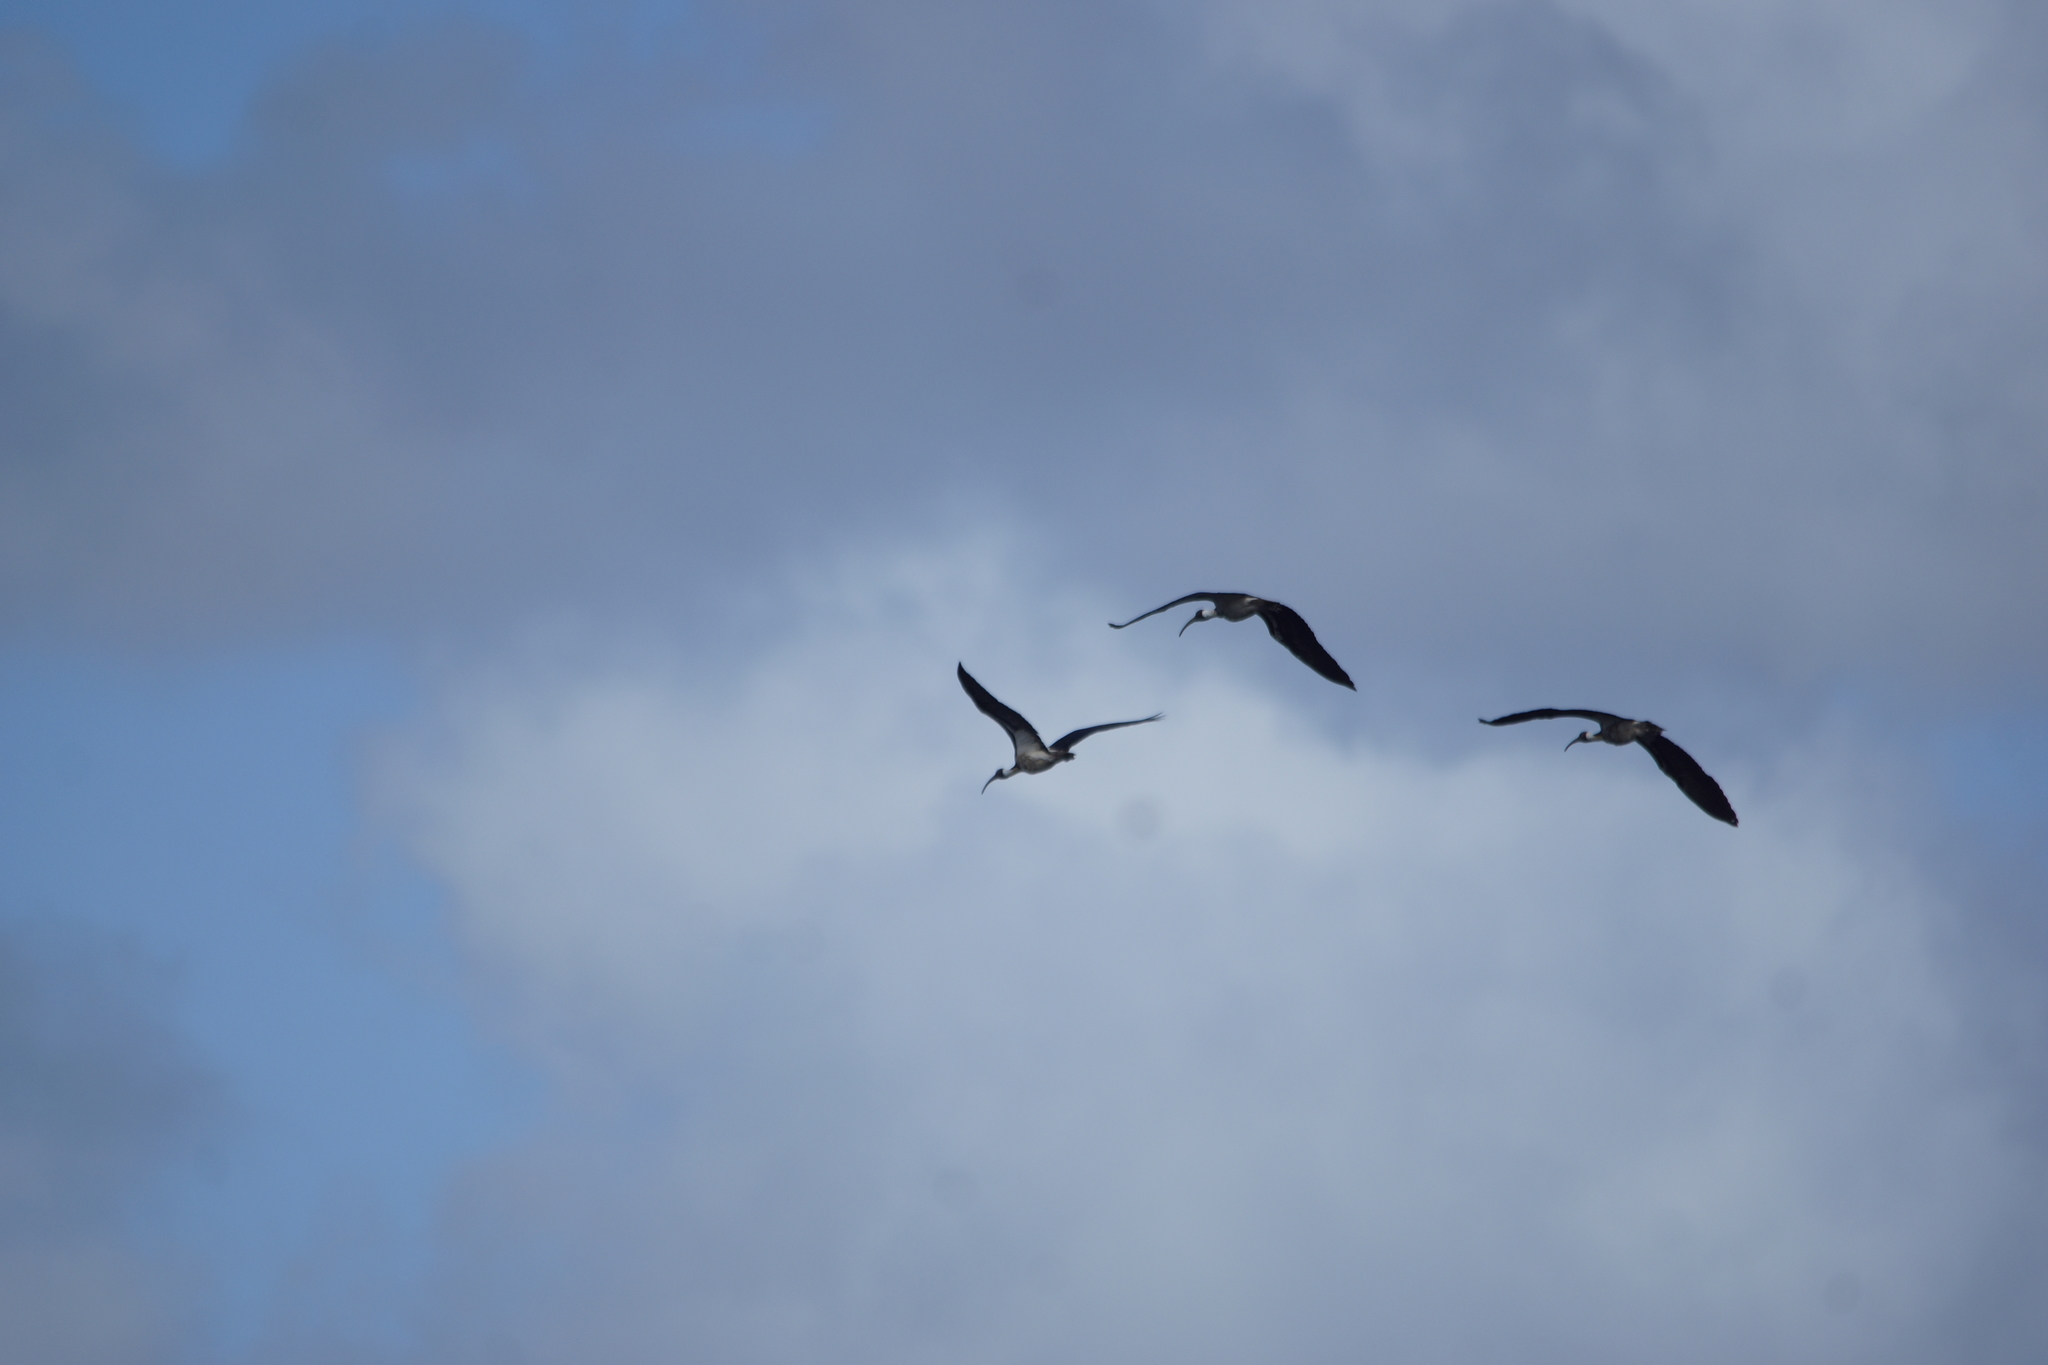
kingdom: Animalia
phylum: Chordata
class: Aves
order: Pelecaniformes
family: Threskiornithidae
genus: Threskiornis
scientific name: Threskiornis spinicollis
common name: Straw-necked ibis
